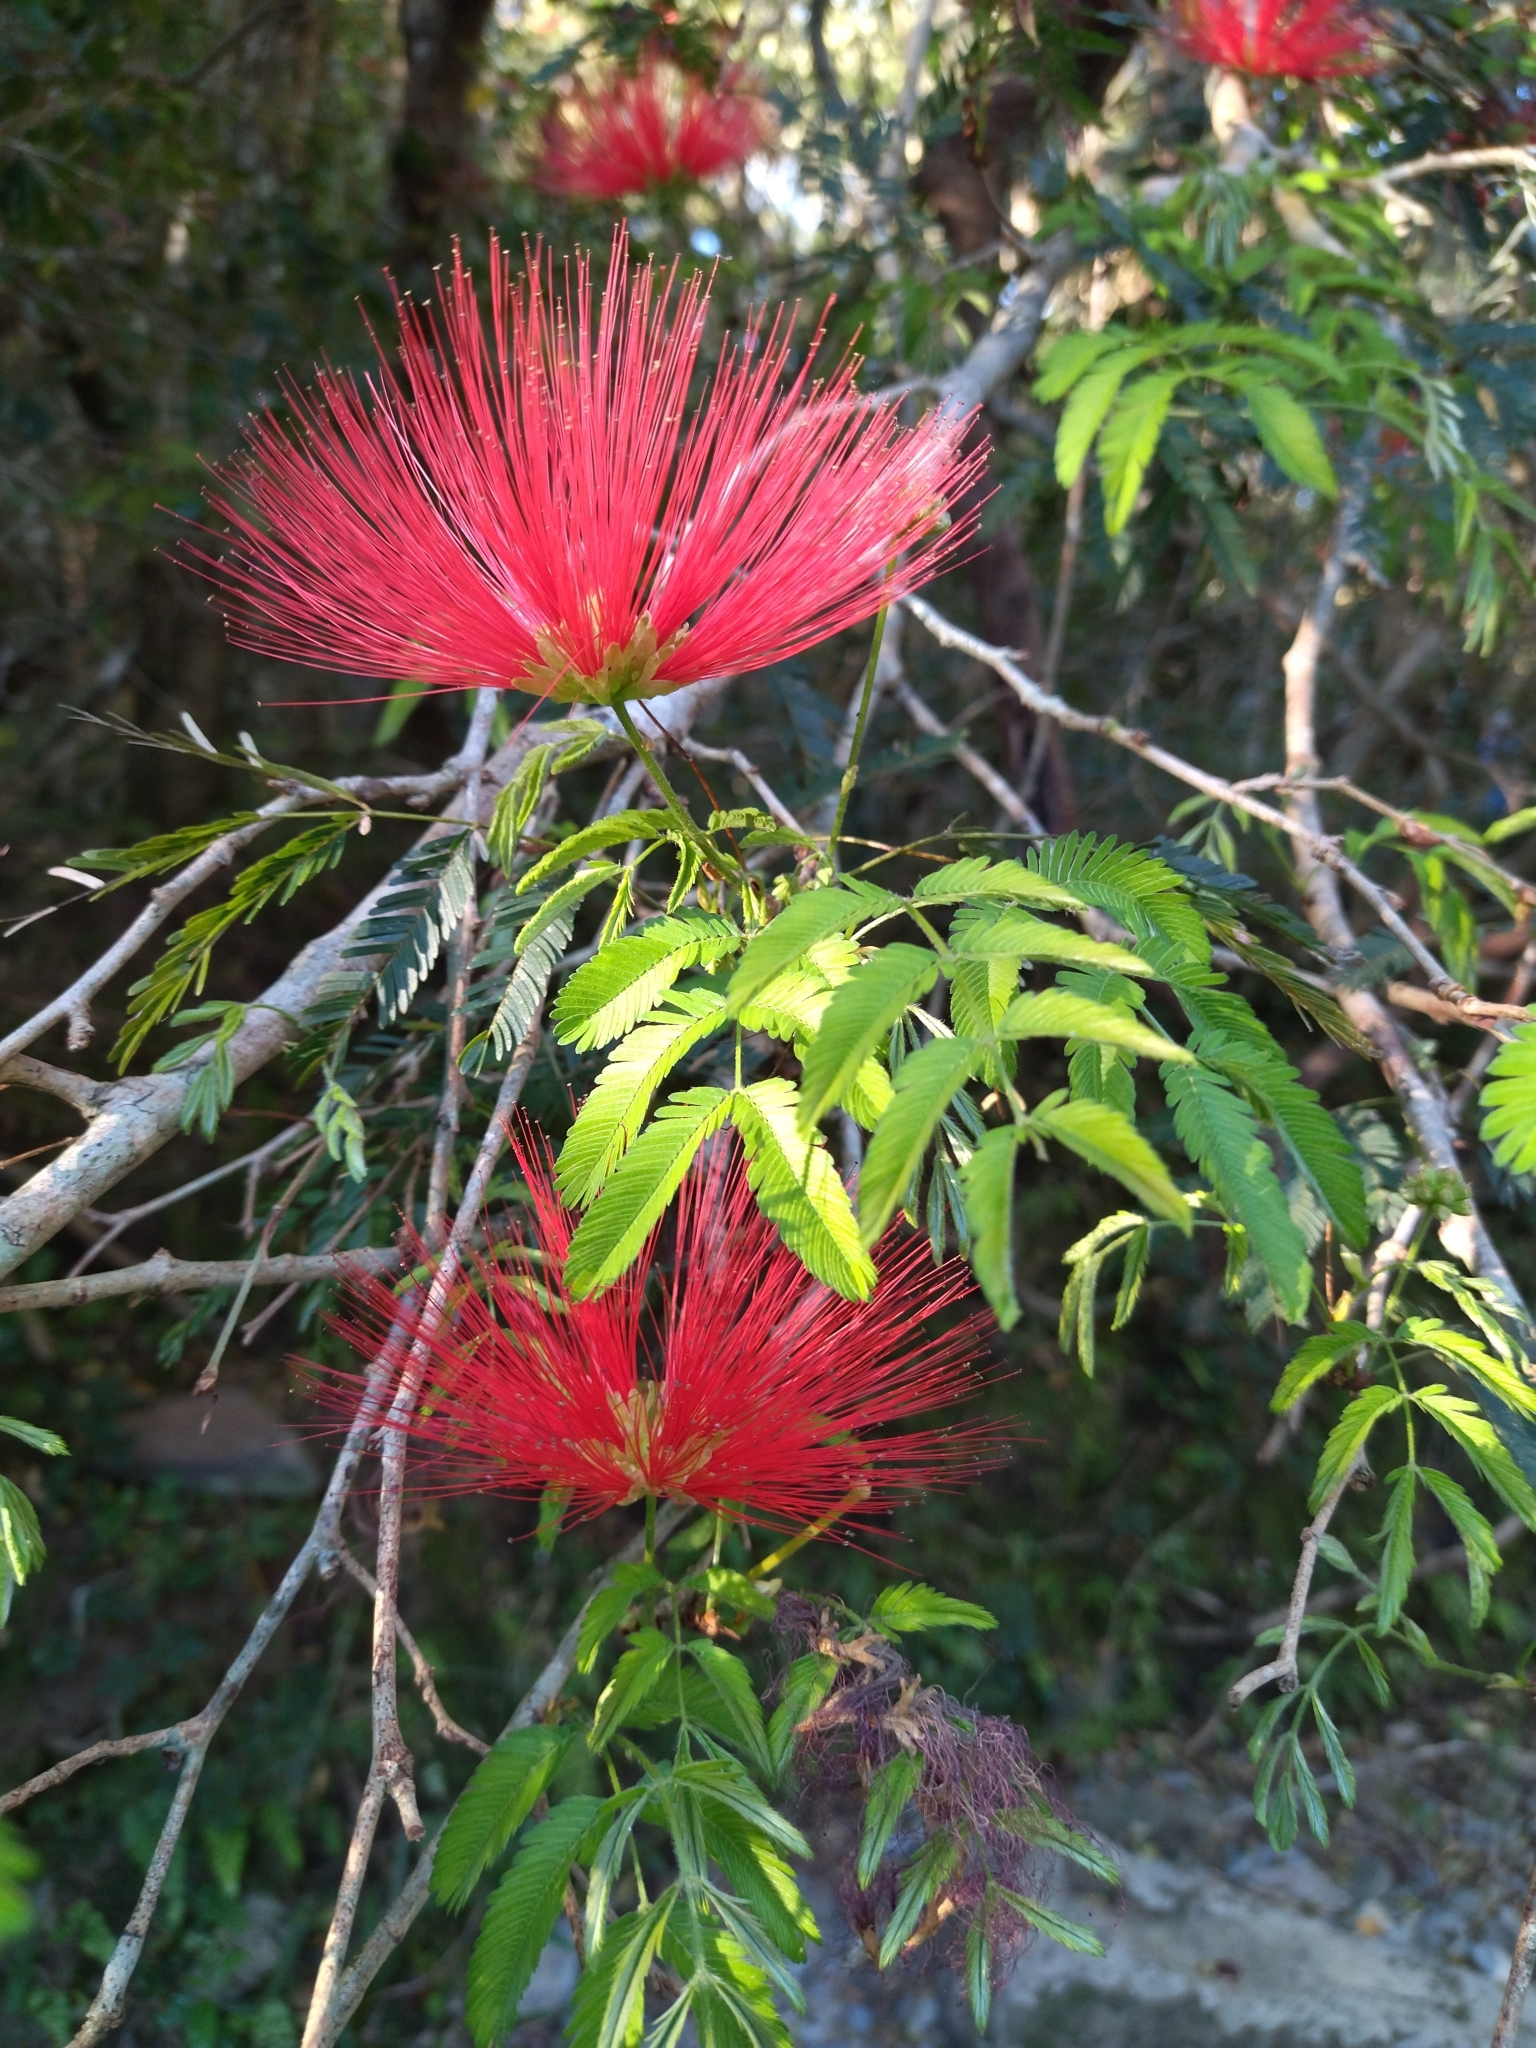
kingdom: Plantae
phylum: Tracheophyta
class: Magnoliopsida
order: Fabales
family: Fabaceae
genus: Calliandra
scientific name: Calliandra tweediei
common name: Mexican flamebush
